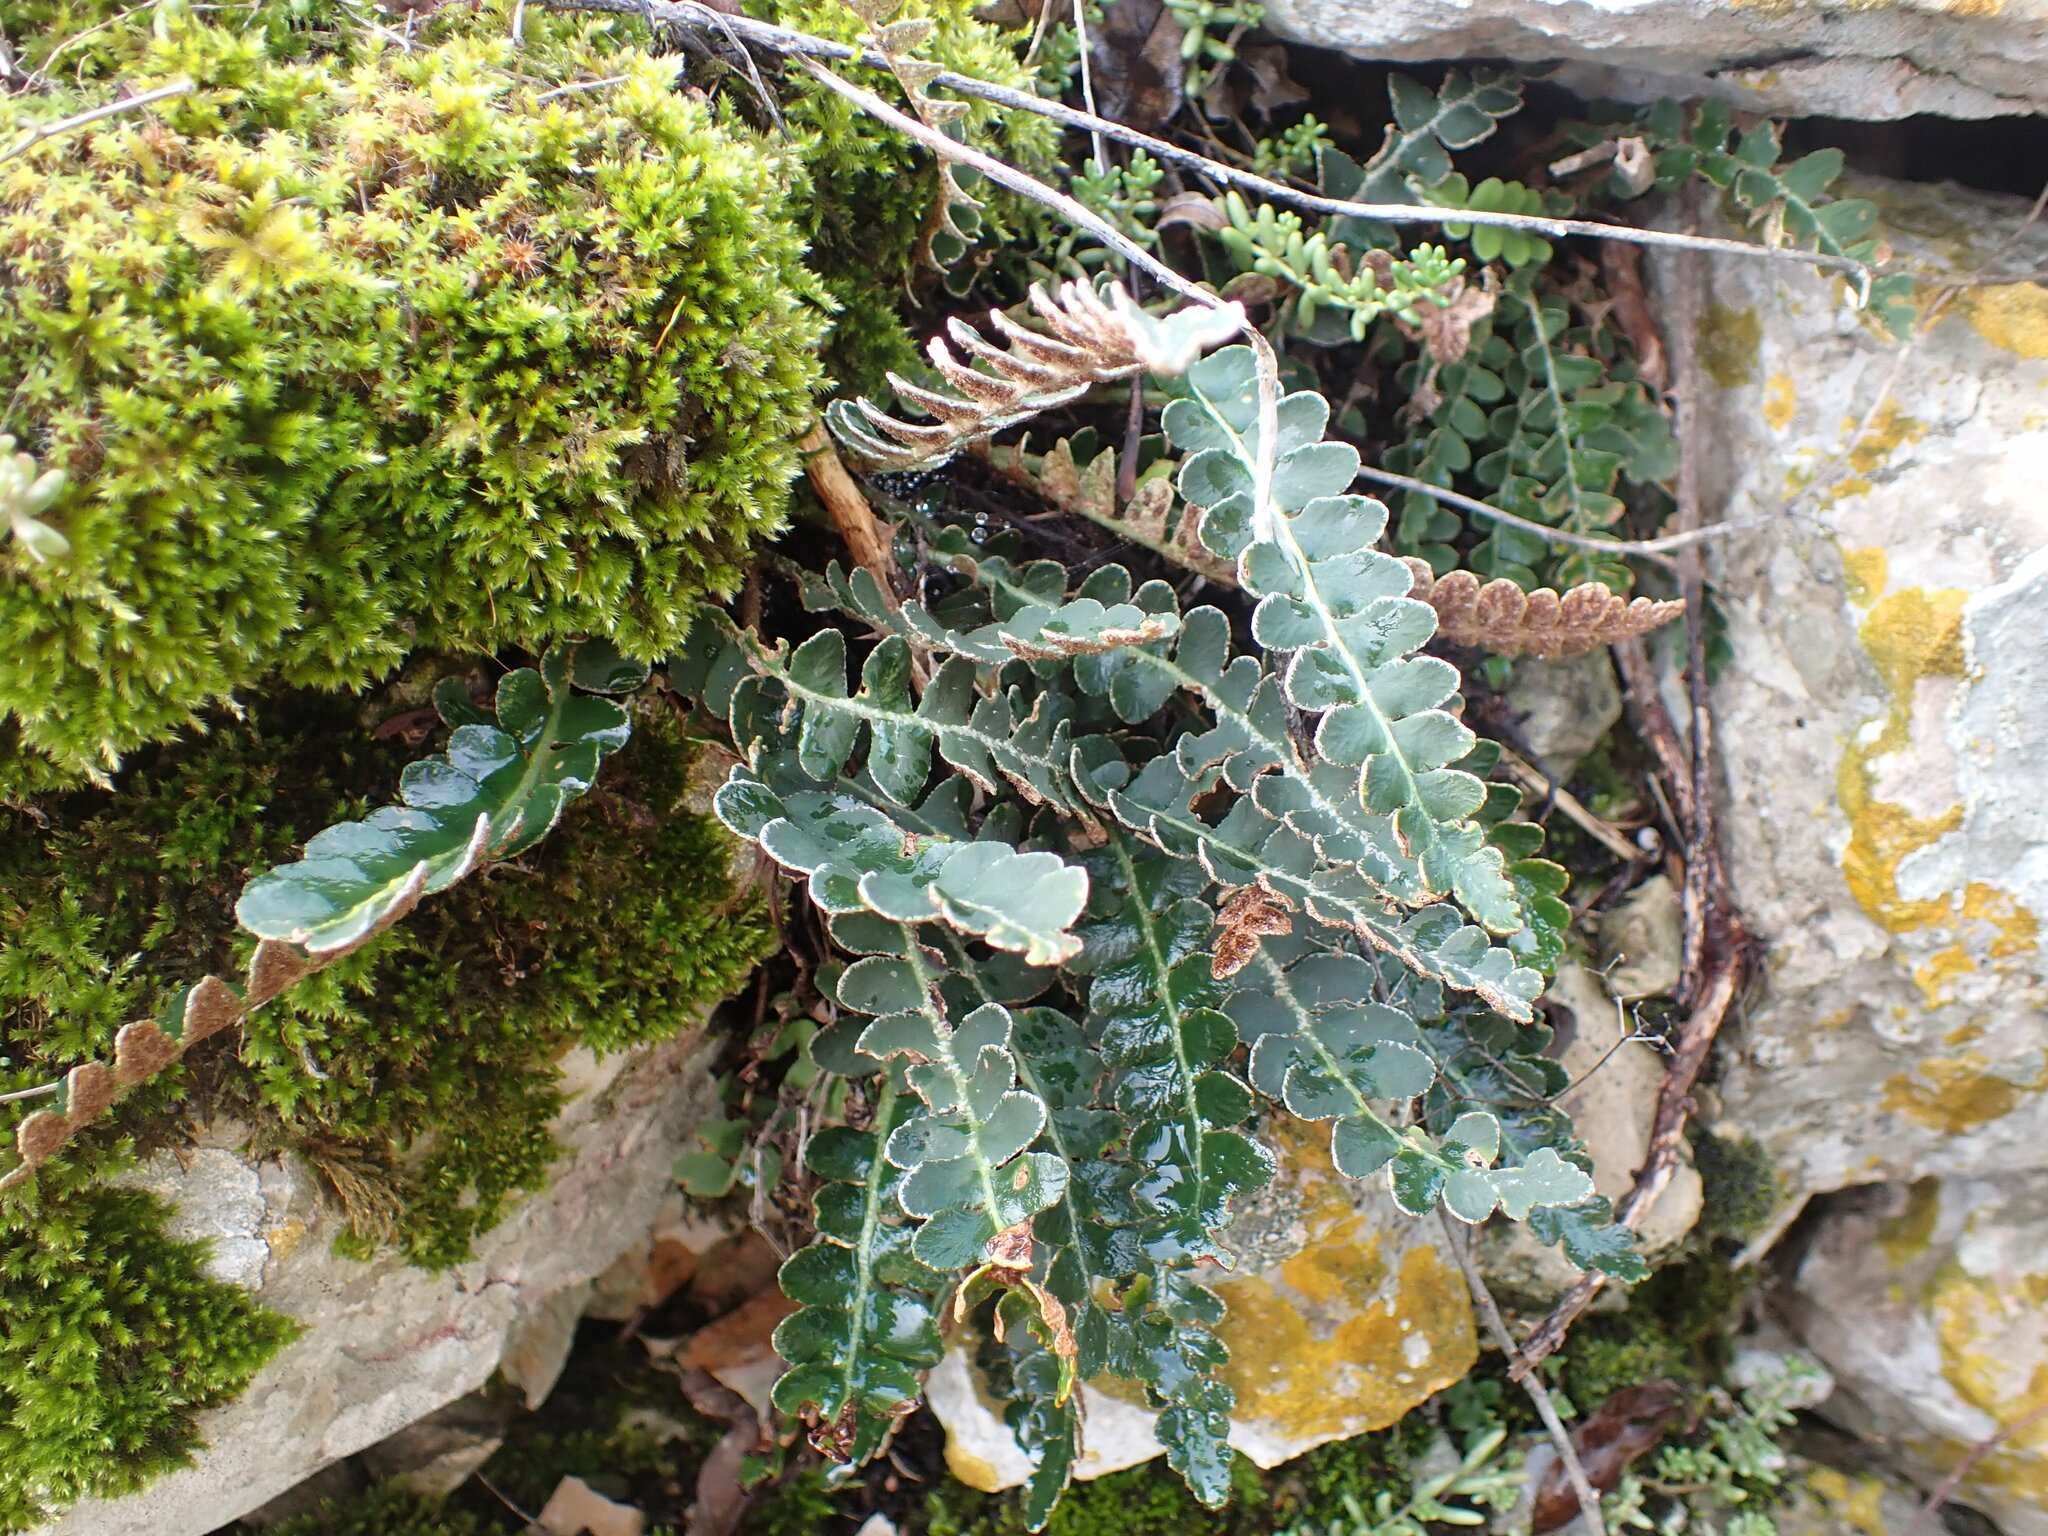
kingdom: Plantae
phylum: Tracheophyta
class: Polypodiopsida
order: Polypodiales
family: Aspleniaceae
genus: Asplenium
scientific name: Asplenium ceterach
